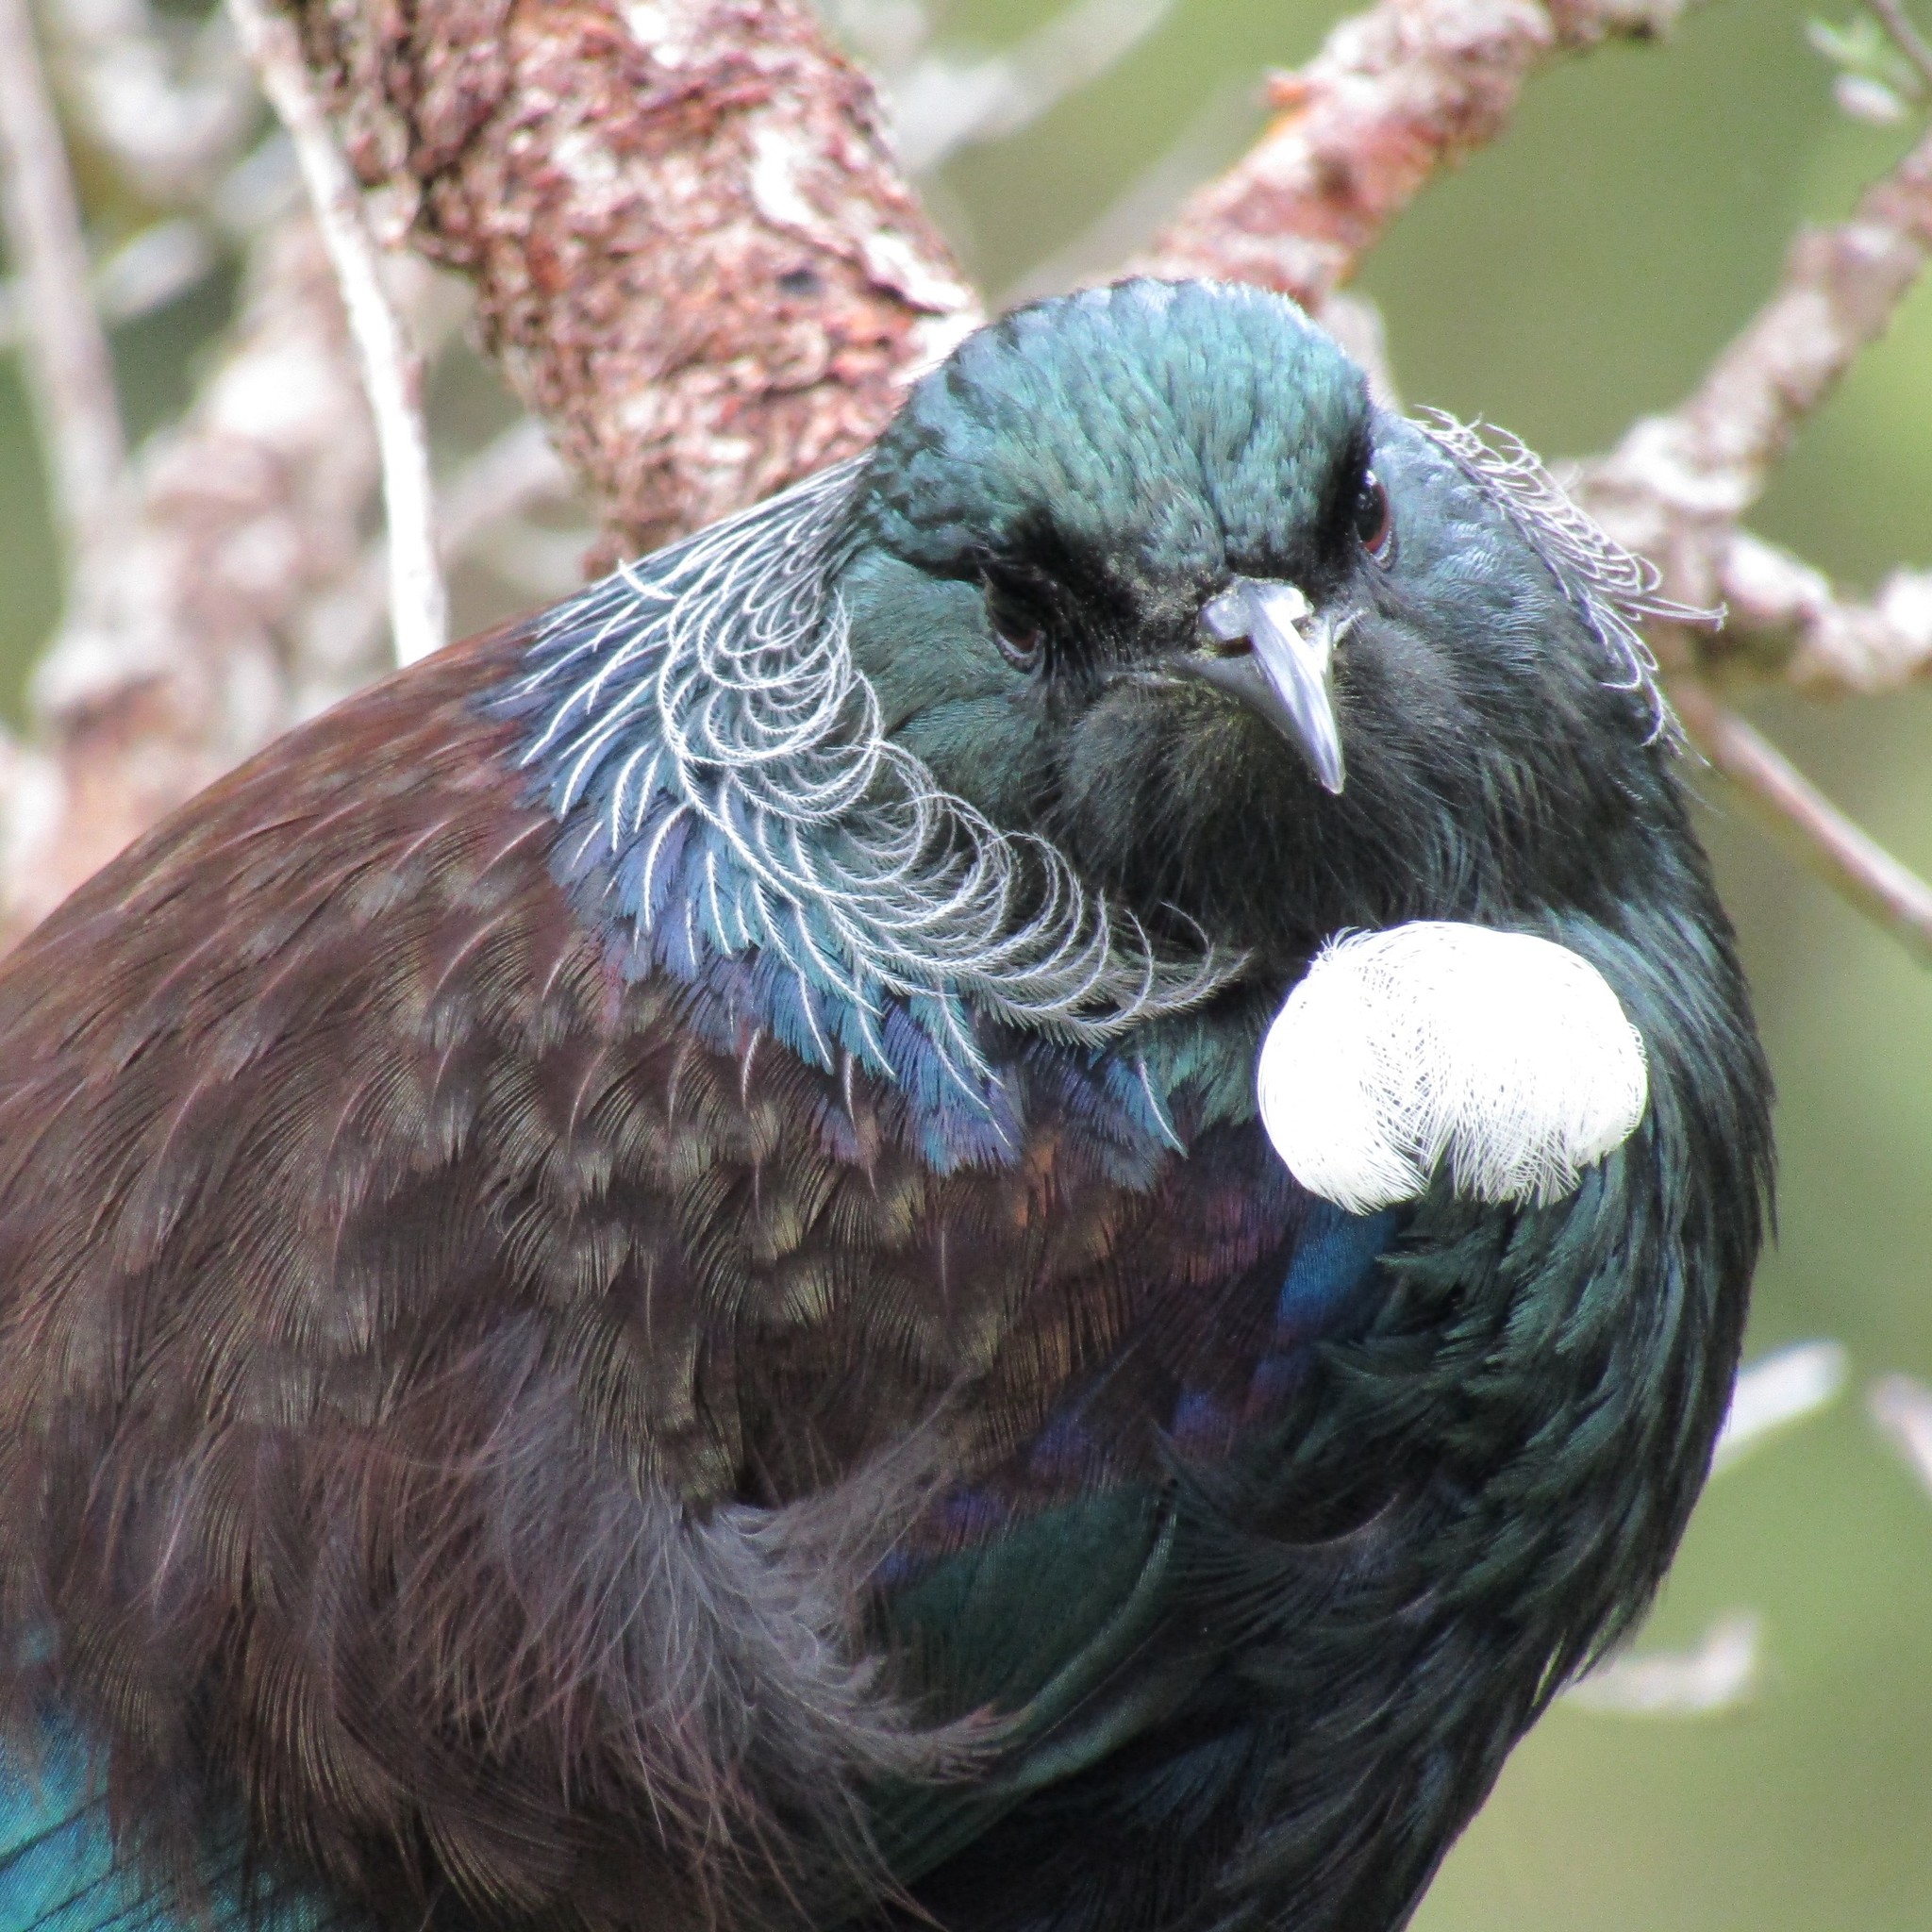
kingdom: Animalia
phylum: Chordata
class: Aves
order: Passeriformes
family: Meliphagidae
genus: Prosthemadera
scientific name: Prosthemadera novaeseelandiae
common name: Tui
